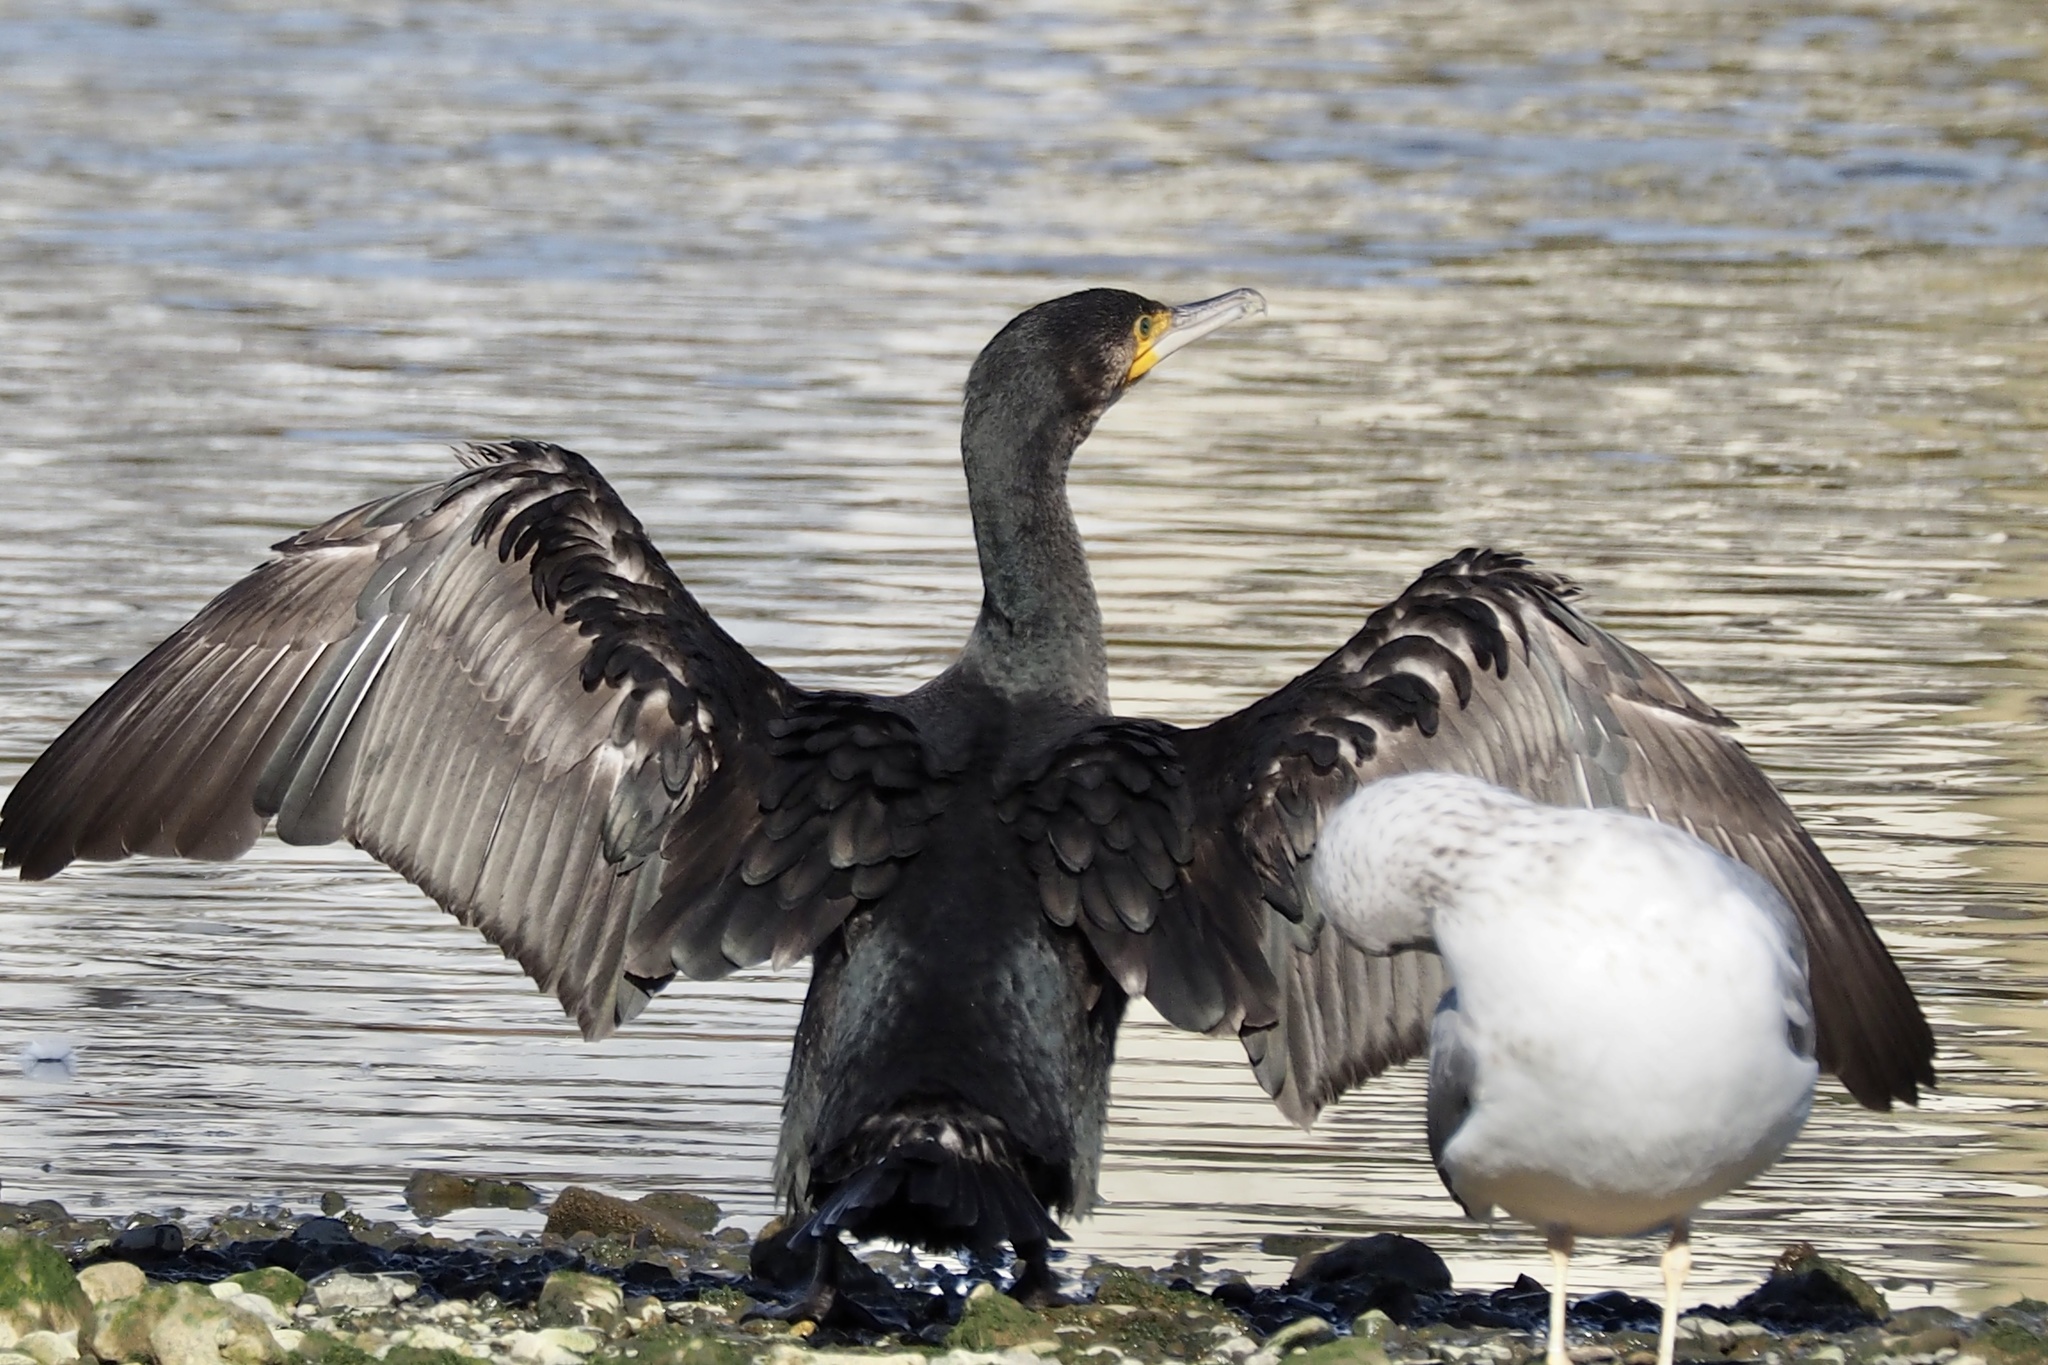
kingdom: Animalia
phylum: Chordata
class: Aves
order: Suliformes
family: Phalacrocoracidae
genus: Phalacrocorax
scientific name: Phalacrocorax carbo
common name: Great cormorant
